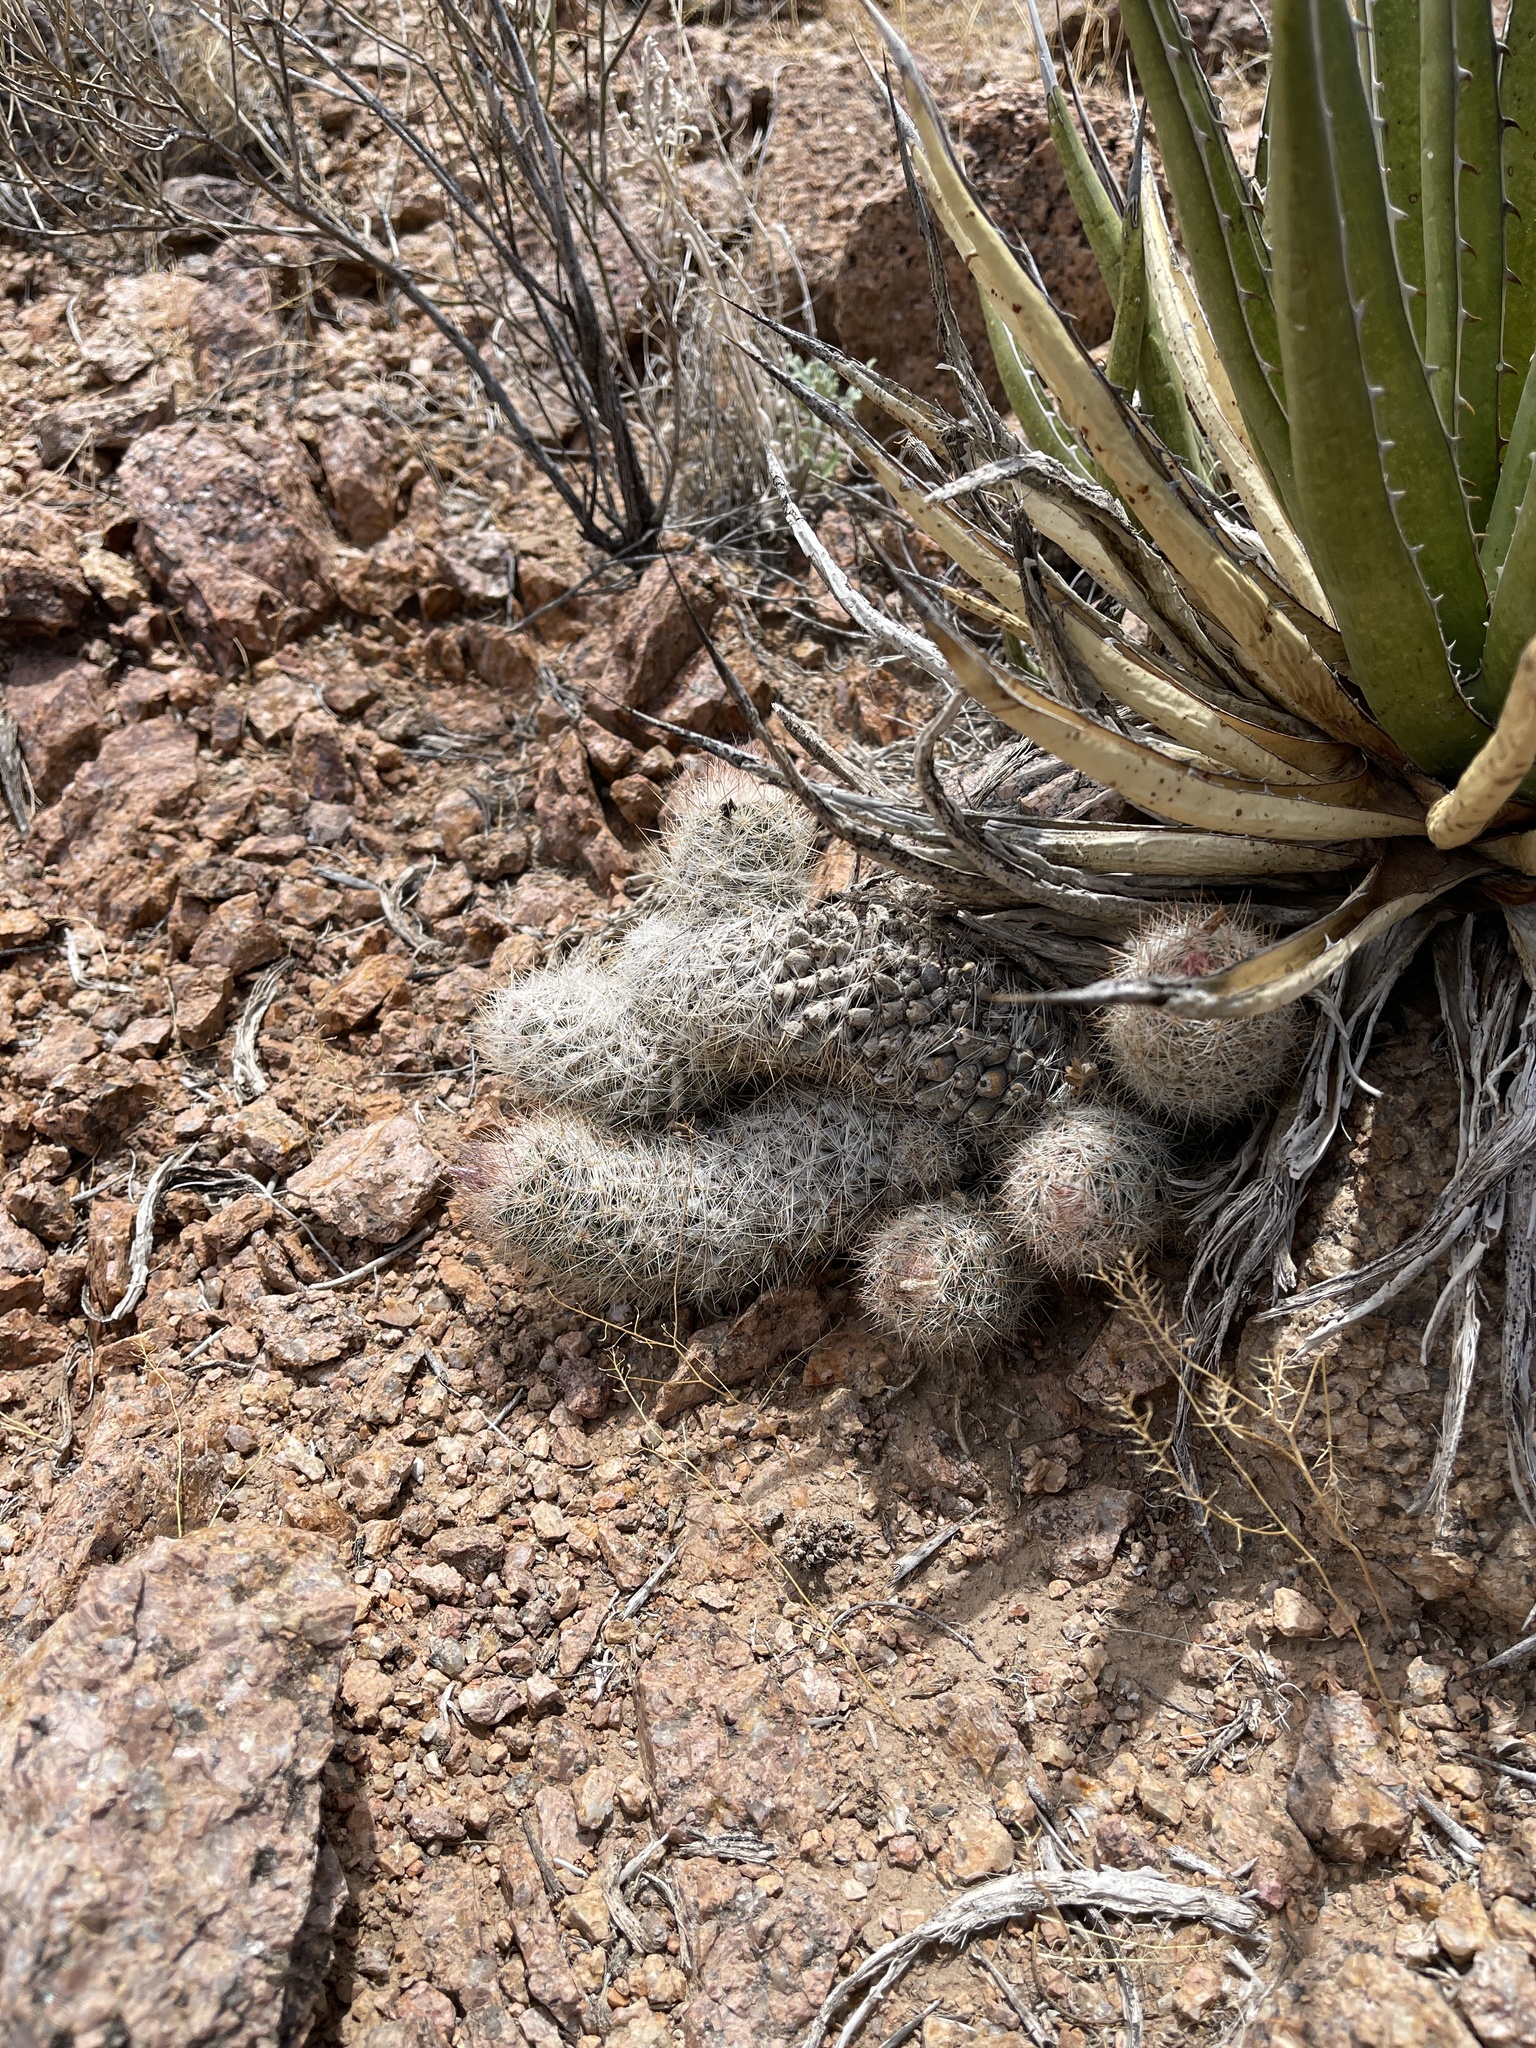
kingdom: Plantae
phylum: Tracheophyta
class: Magnoliopsida
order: Caryophyllales
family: Cactaceae
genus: Pelecyphora
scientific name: Pelecyphora tuberculosa
